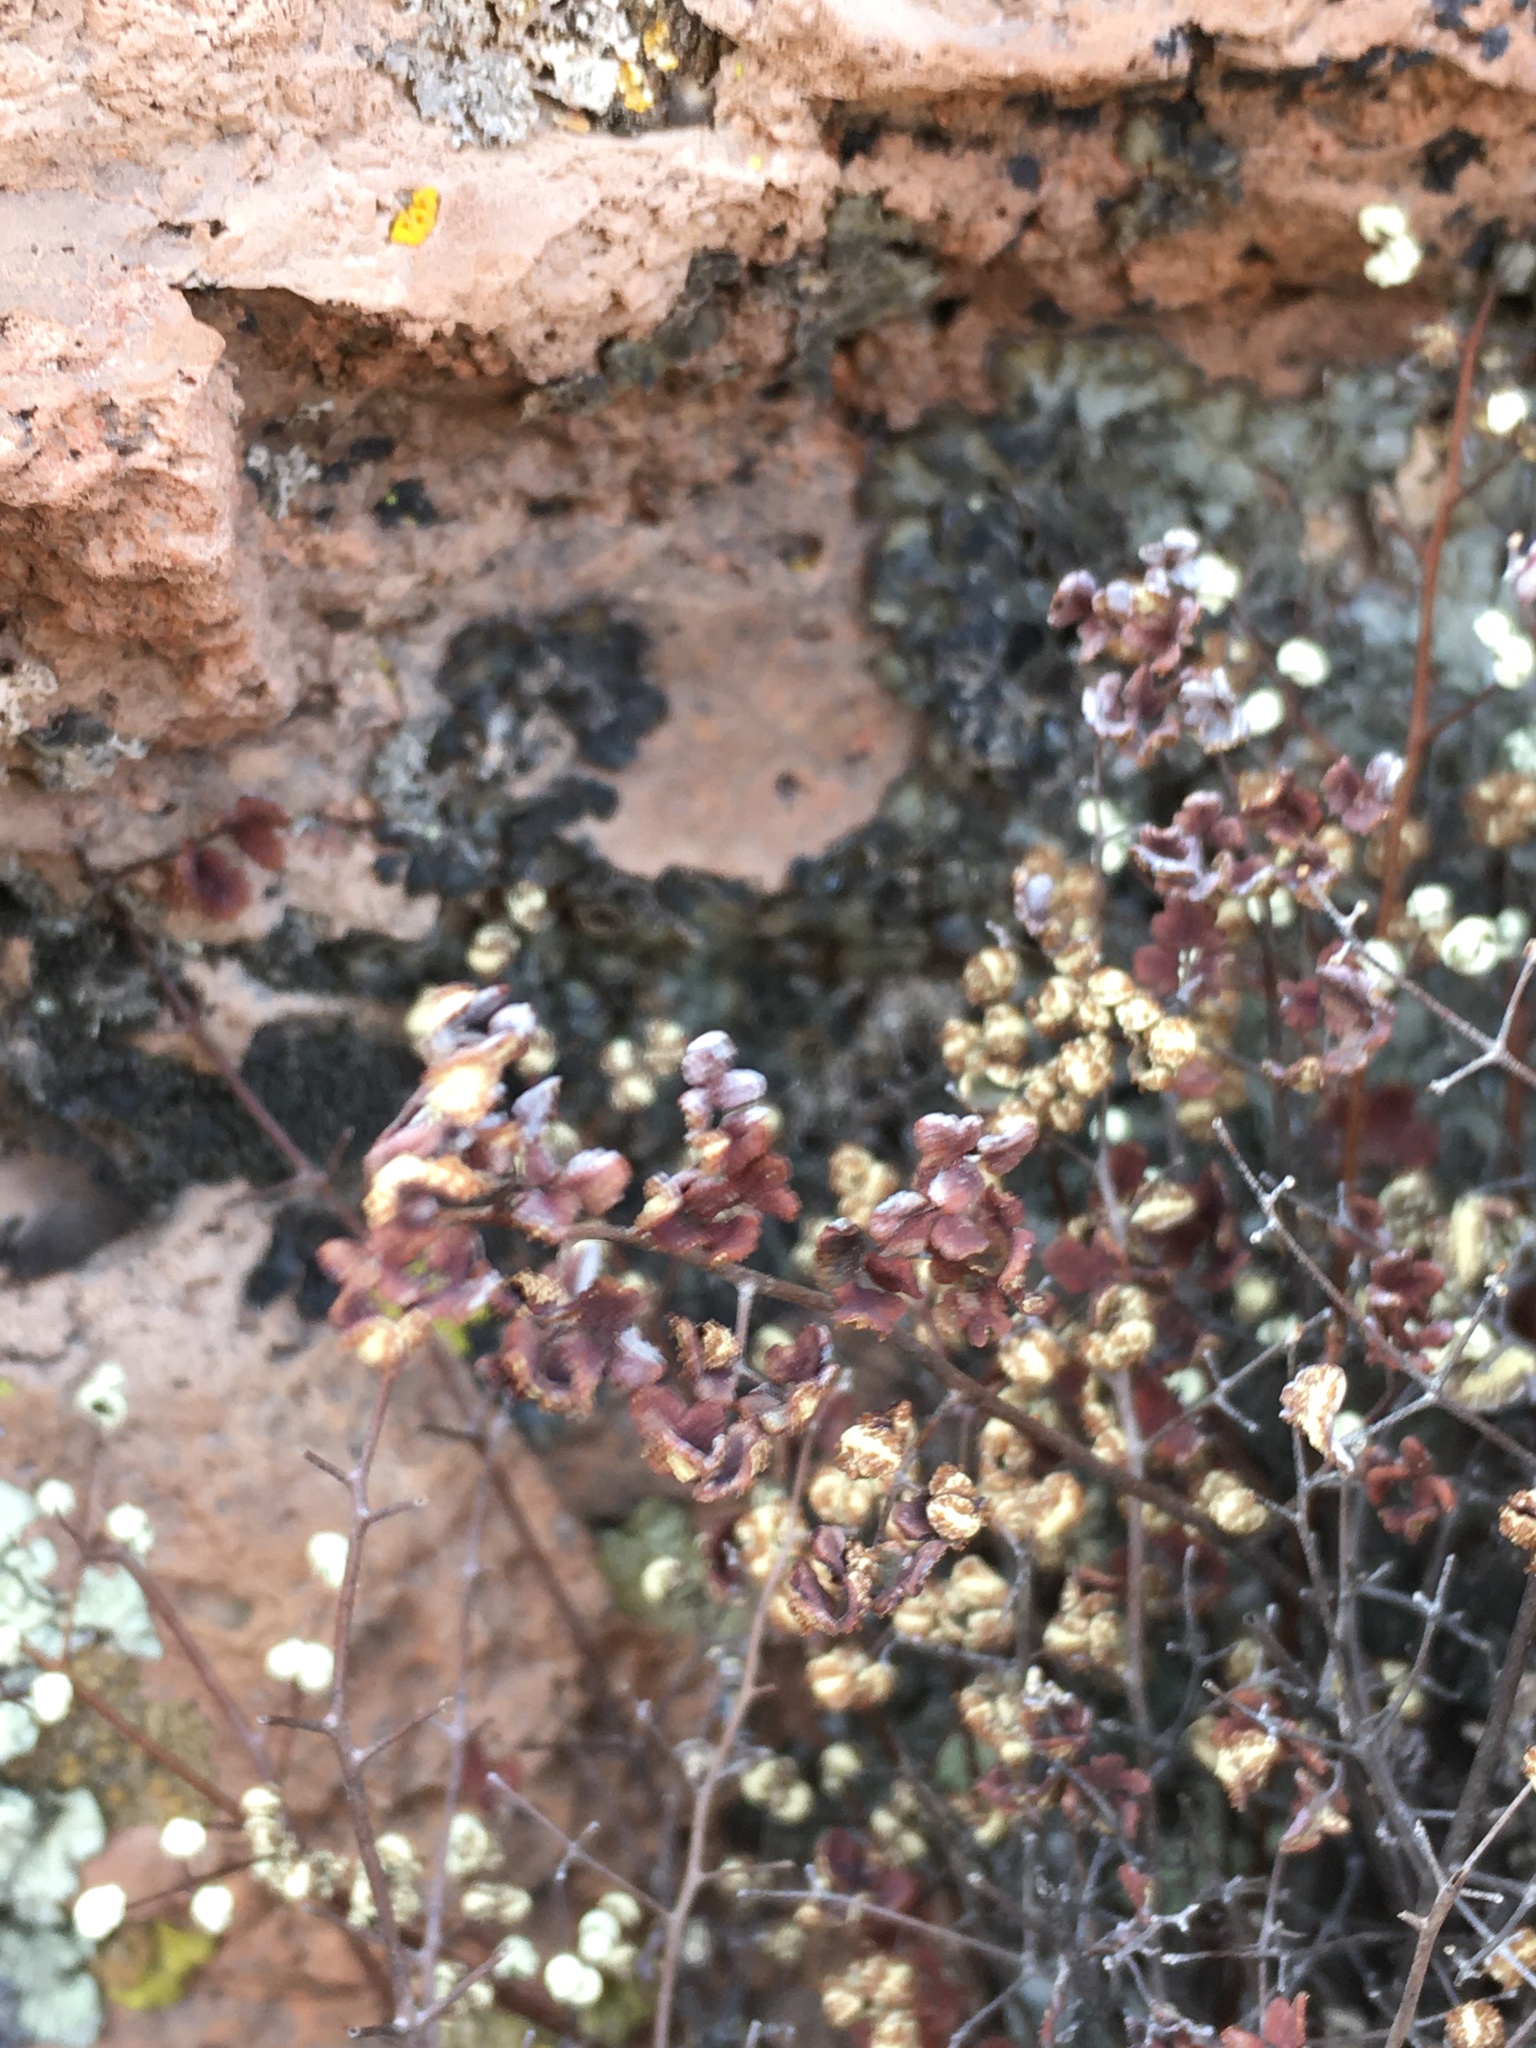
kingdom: Plantae
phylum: Tracheophyta
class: Polypodiopsida
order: Polypodiales
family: Pteridaceae
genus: Argyrochosma
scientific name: Argyrochosma nivea
